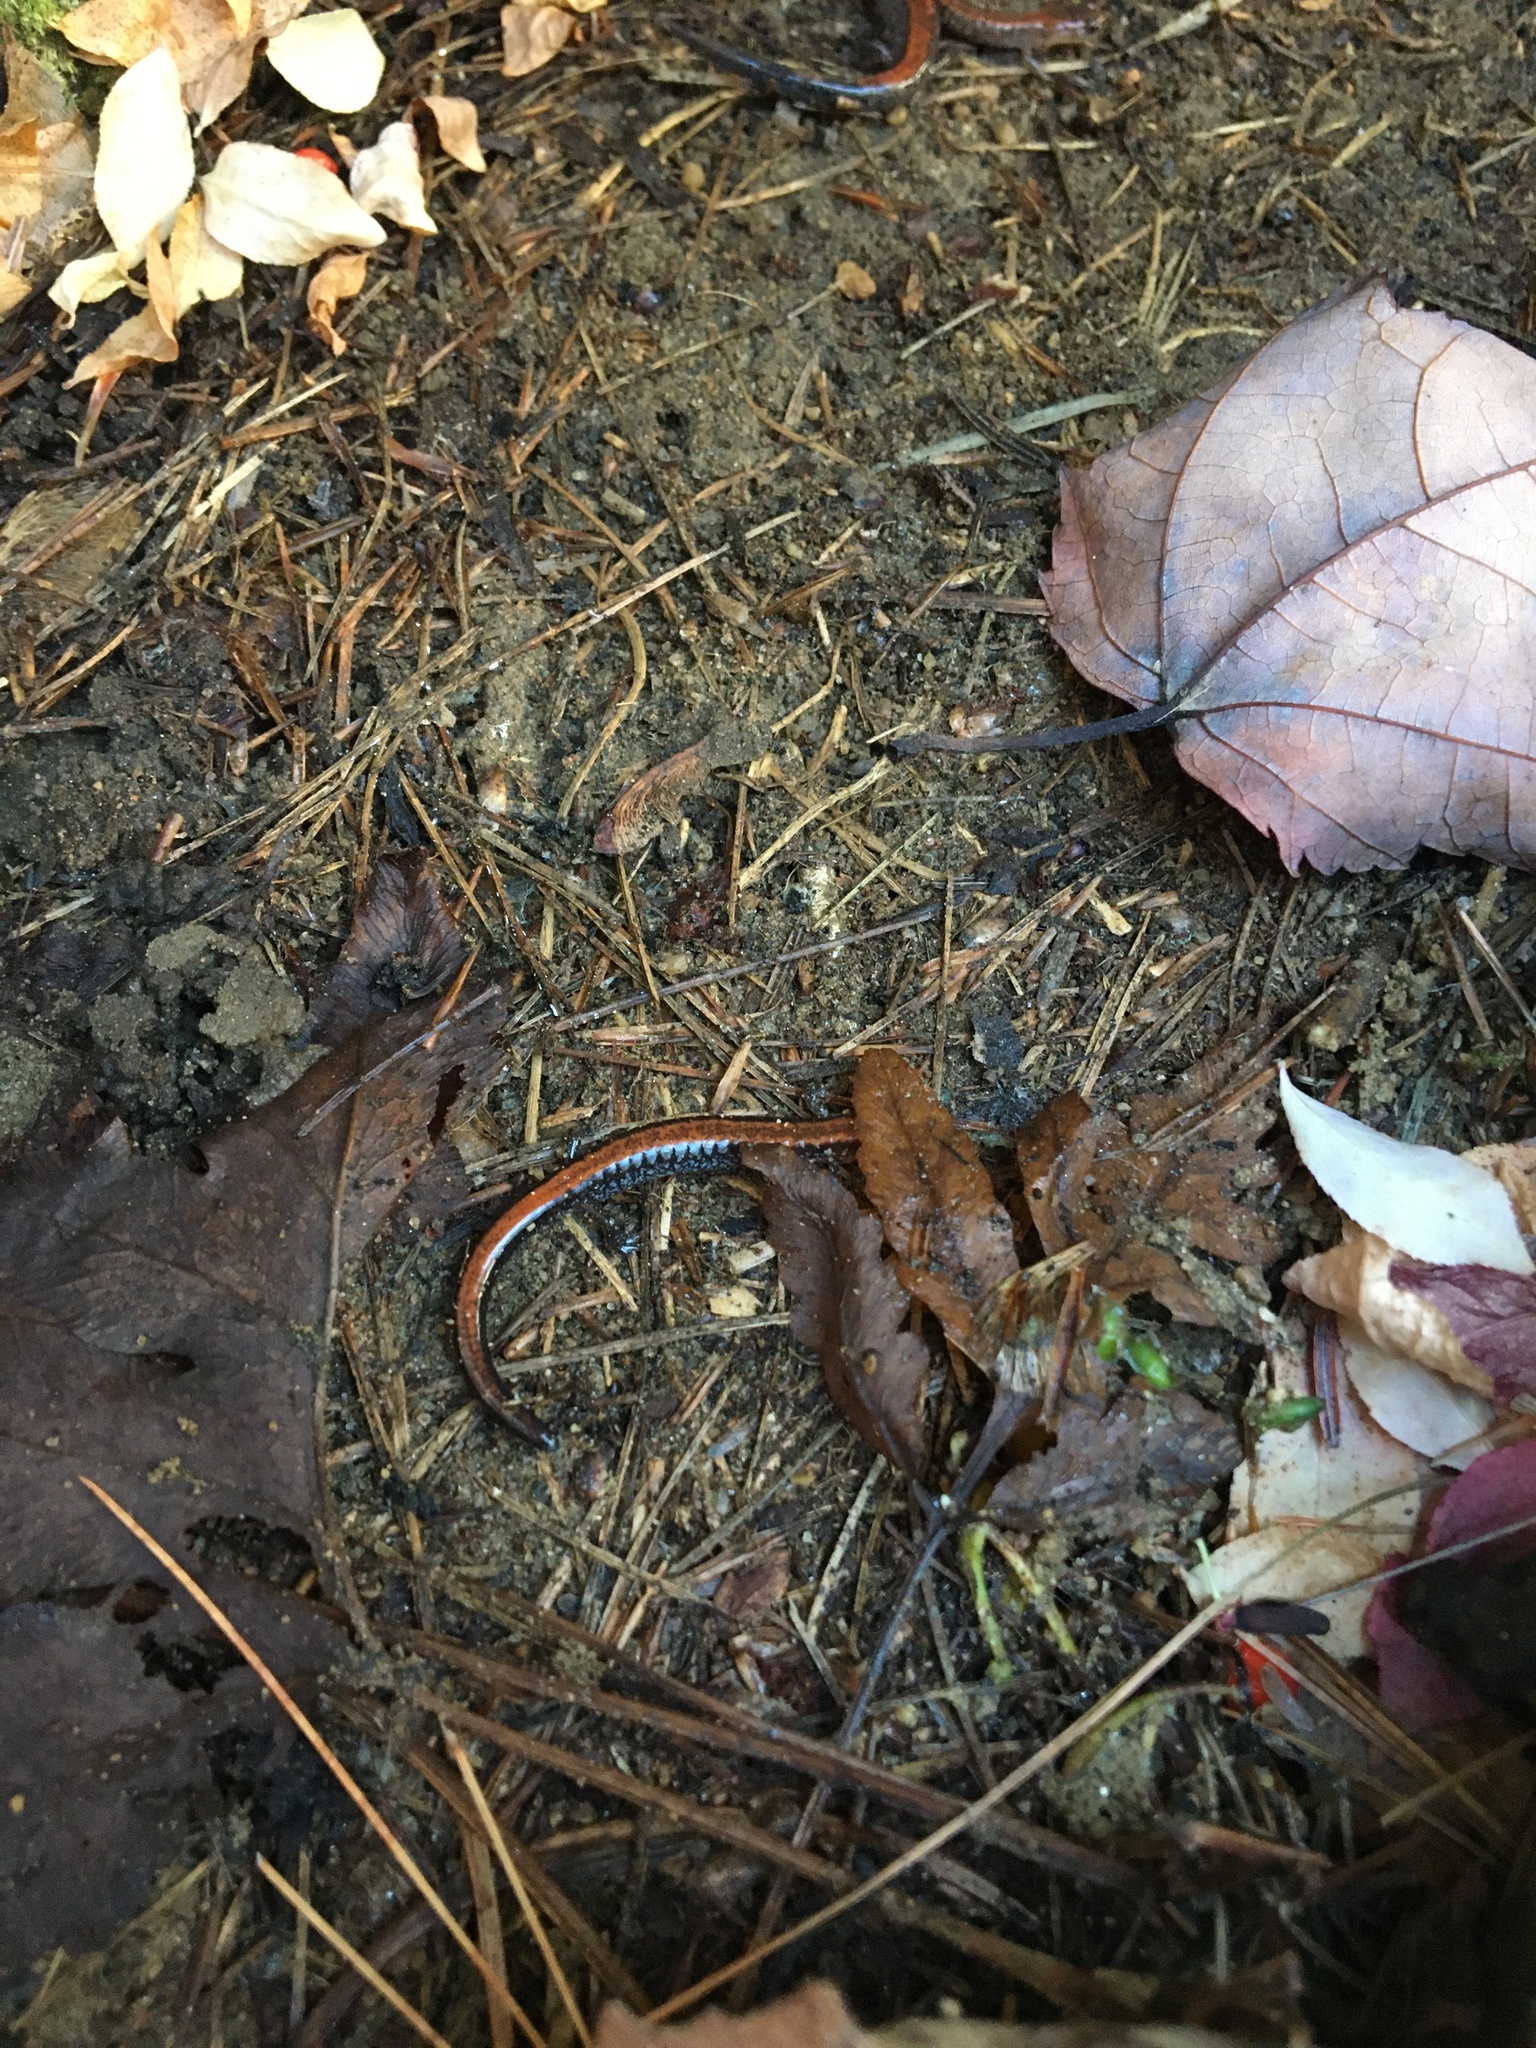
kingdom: Animalia
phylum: Chordata
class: Amphibia
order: Caudata
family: Plethodontidae
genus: Plethodon
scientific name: Plethodon cinereus
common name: Redback salamander
